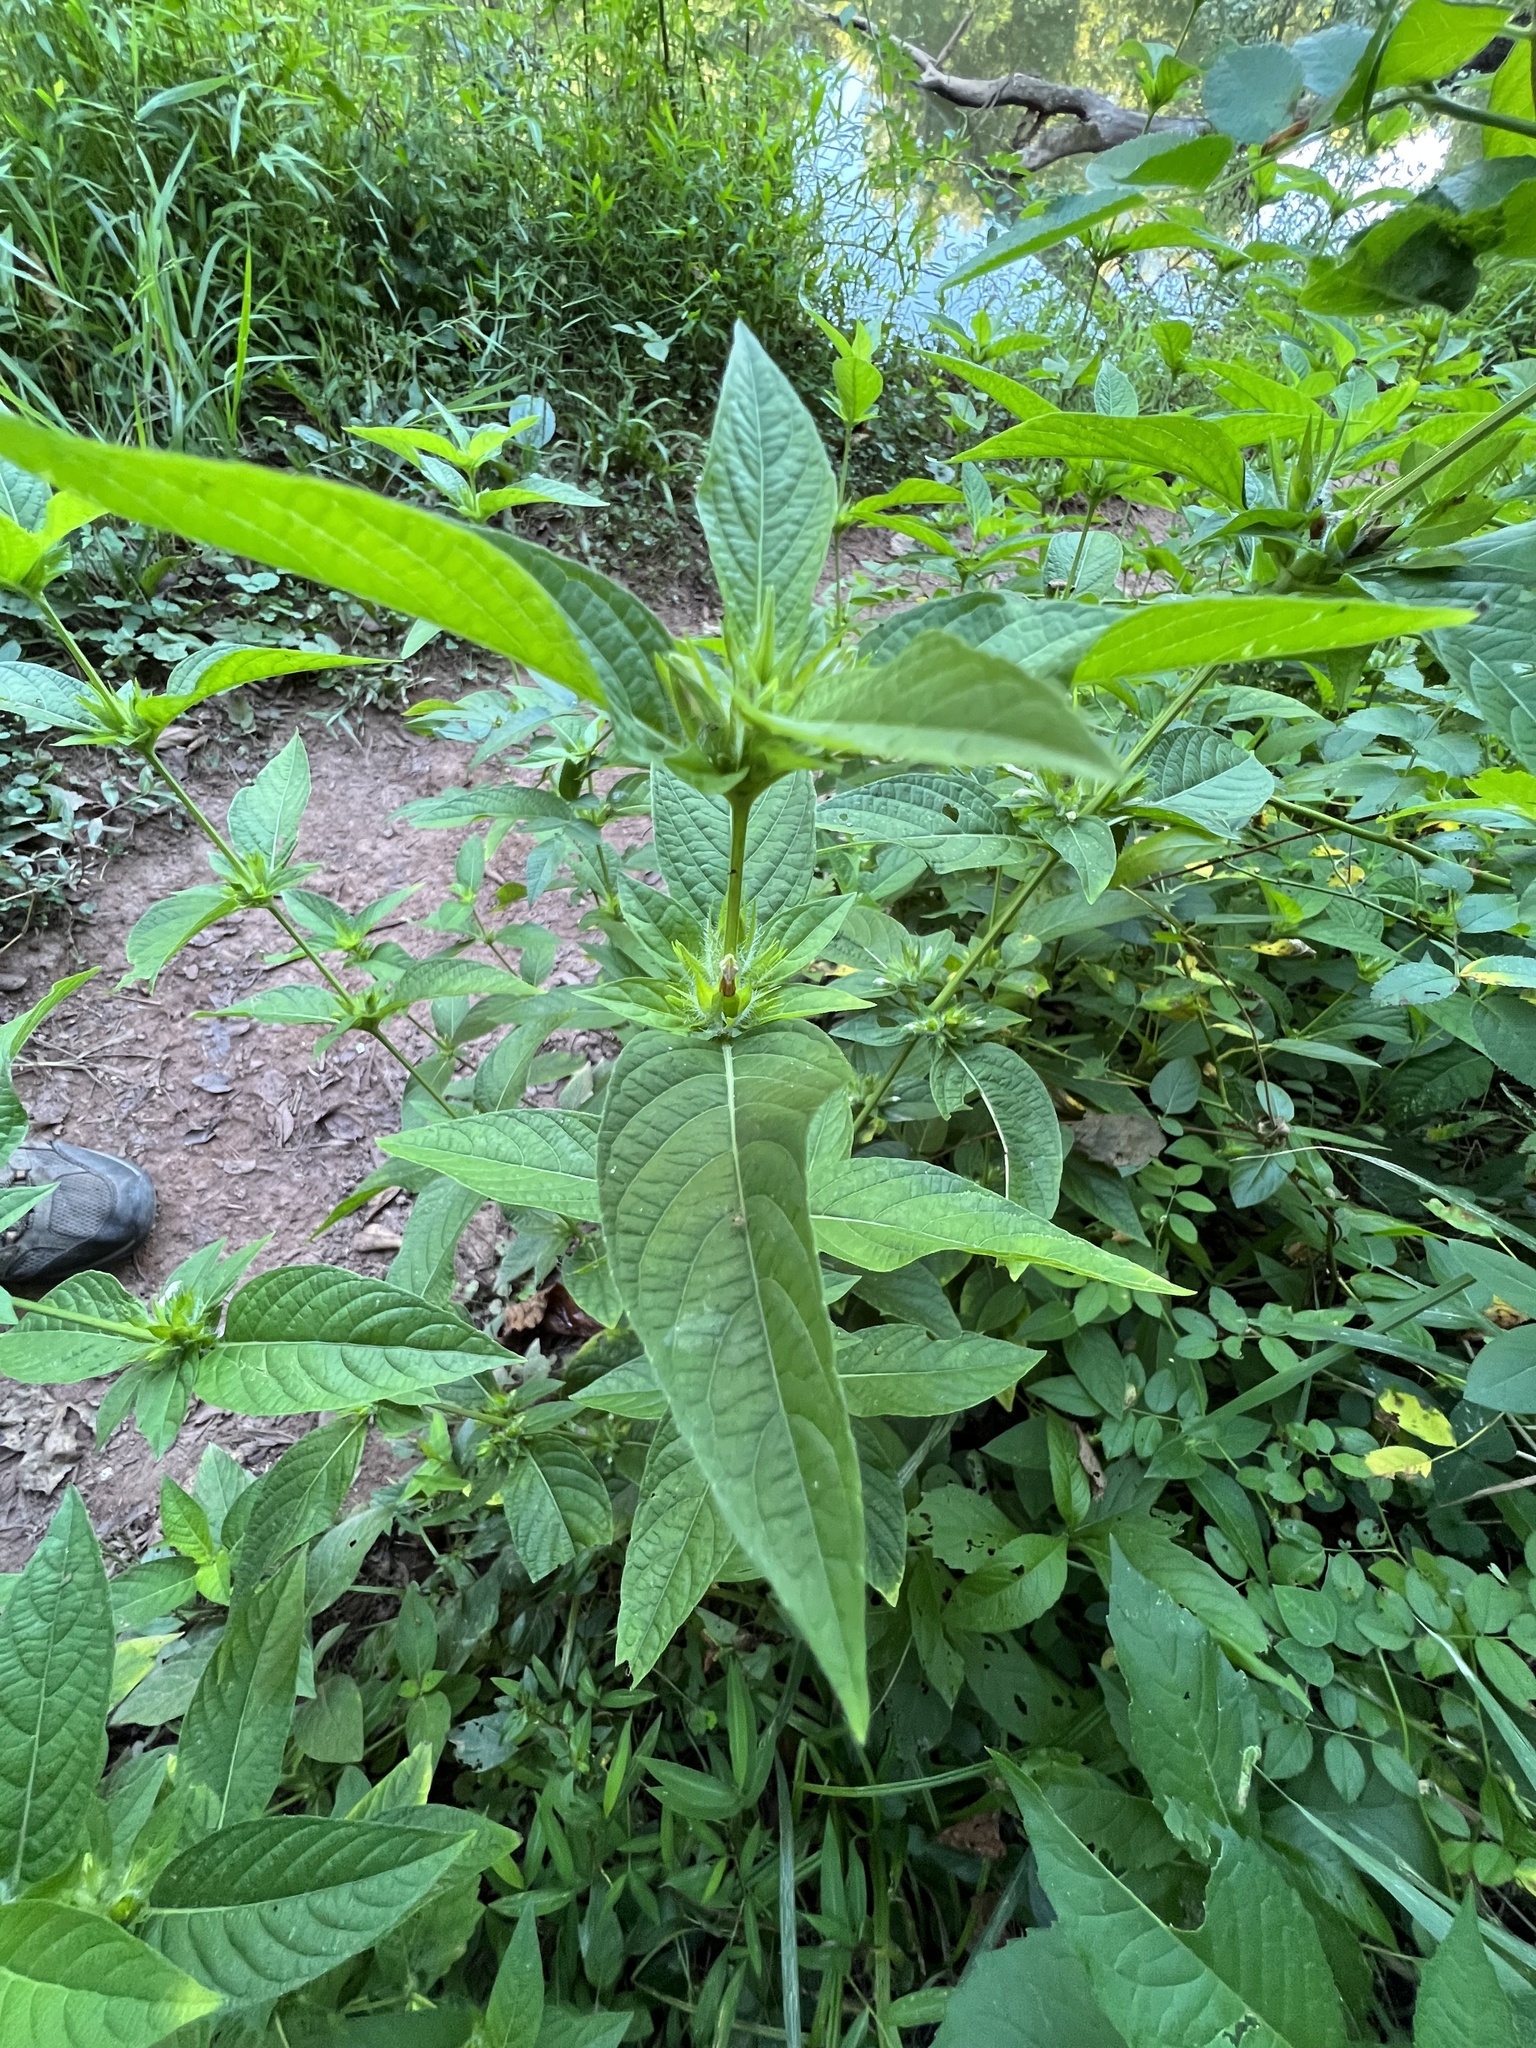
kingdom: Plantae
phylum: Tracheophyta
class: Magnoliopsida
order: Lamiales
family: Acanthaceae
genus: Ruellia
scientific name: Ruellia strepens
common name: Limestone wild petunia
